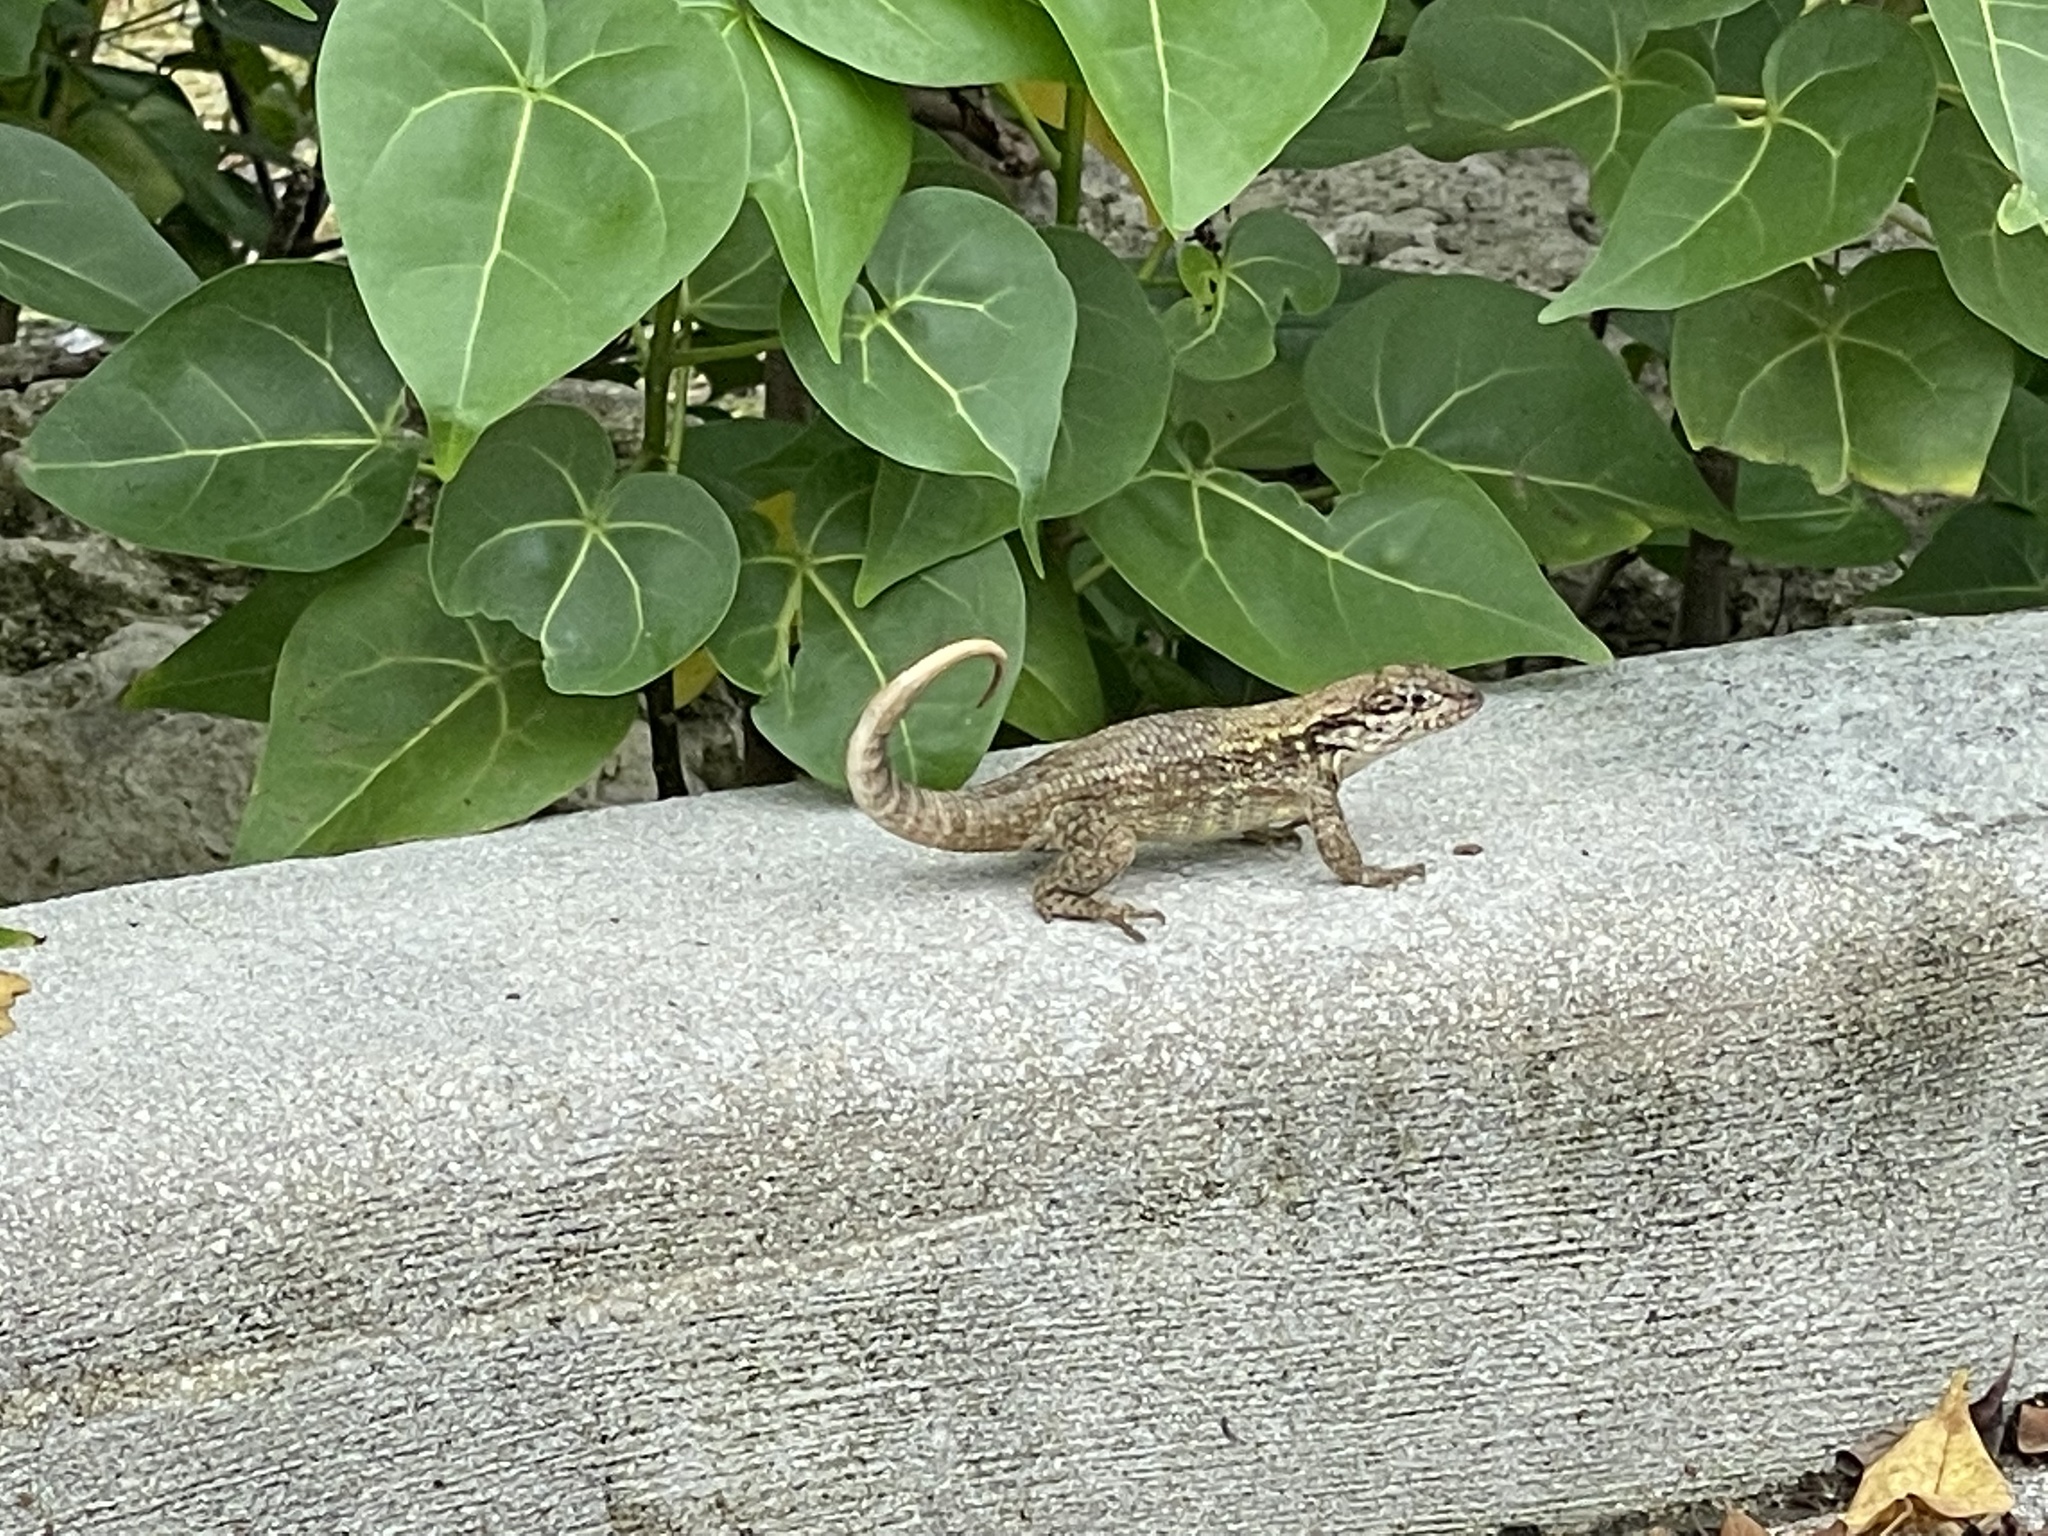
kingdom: Animalia
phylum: Chordata
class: Squamata
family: Leiocephalidae
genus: Leiocephalus
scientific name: Leiocephalus carinatus
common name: Northern curly-tailed lizard
